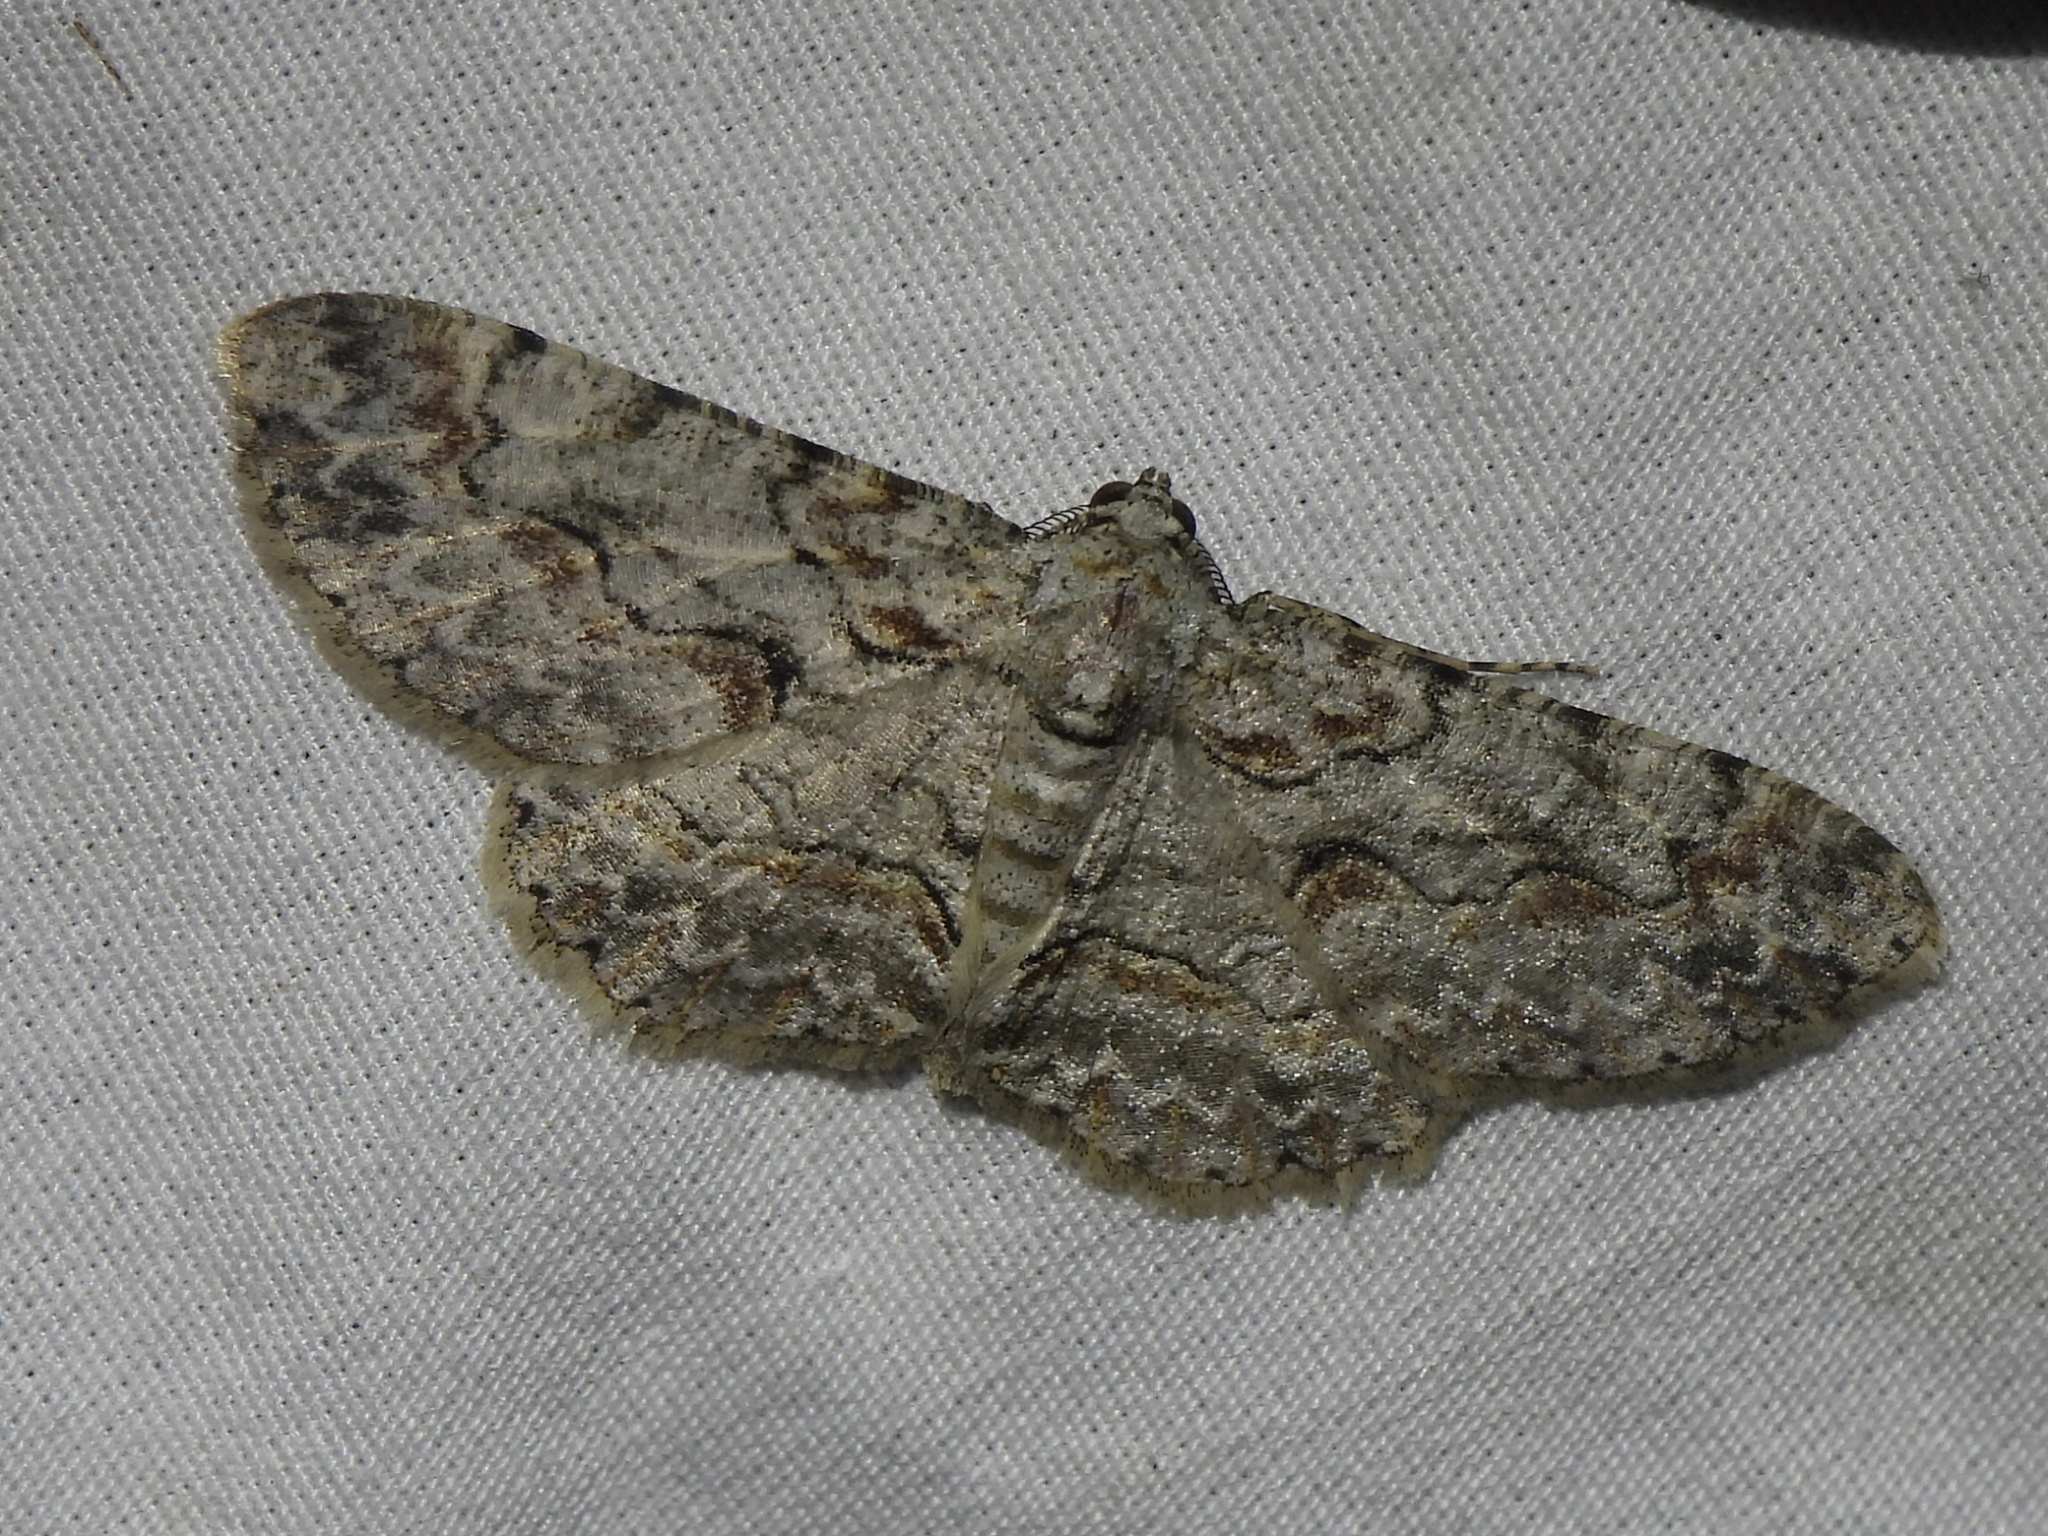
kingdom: Animalia
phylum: Arthropoda
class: Insecta
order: Lepidoptera
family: Geometridae
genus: Iridopsis
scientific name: Iridopsis defectaria
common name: Brown-shaded gray
